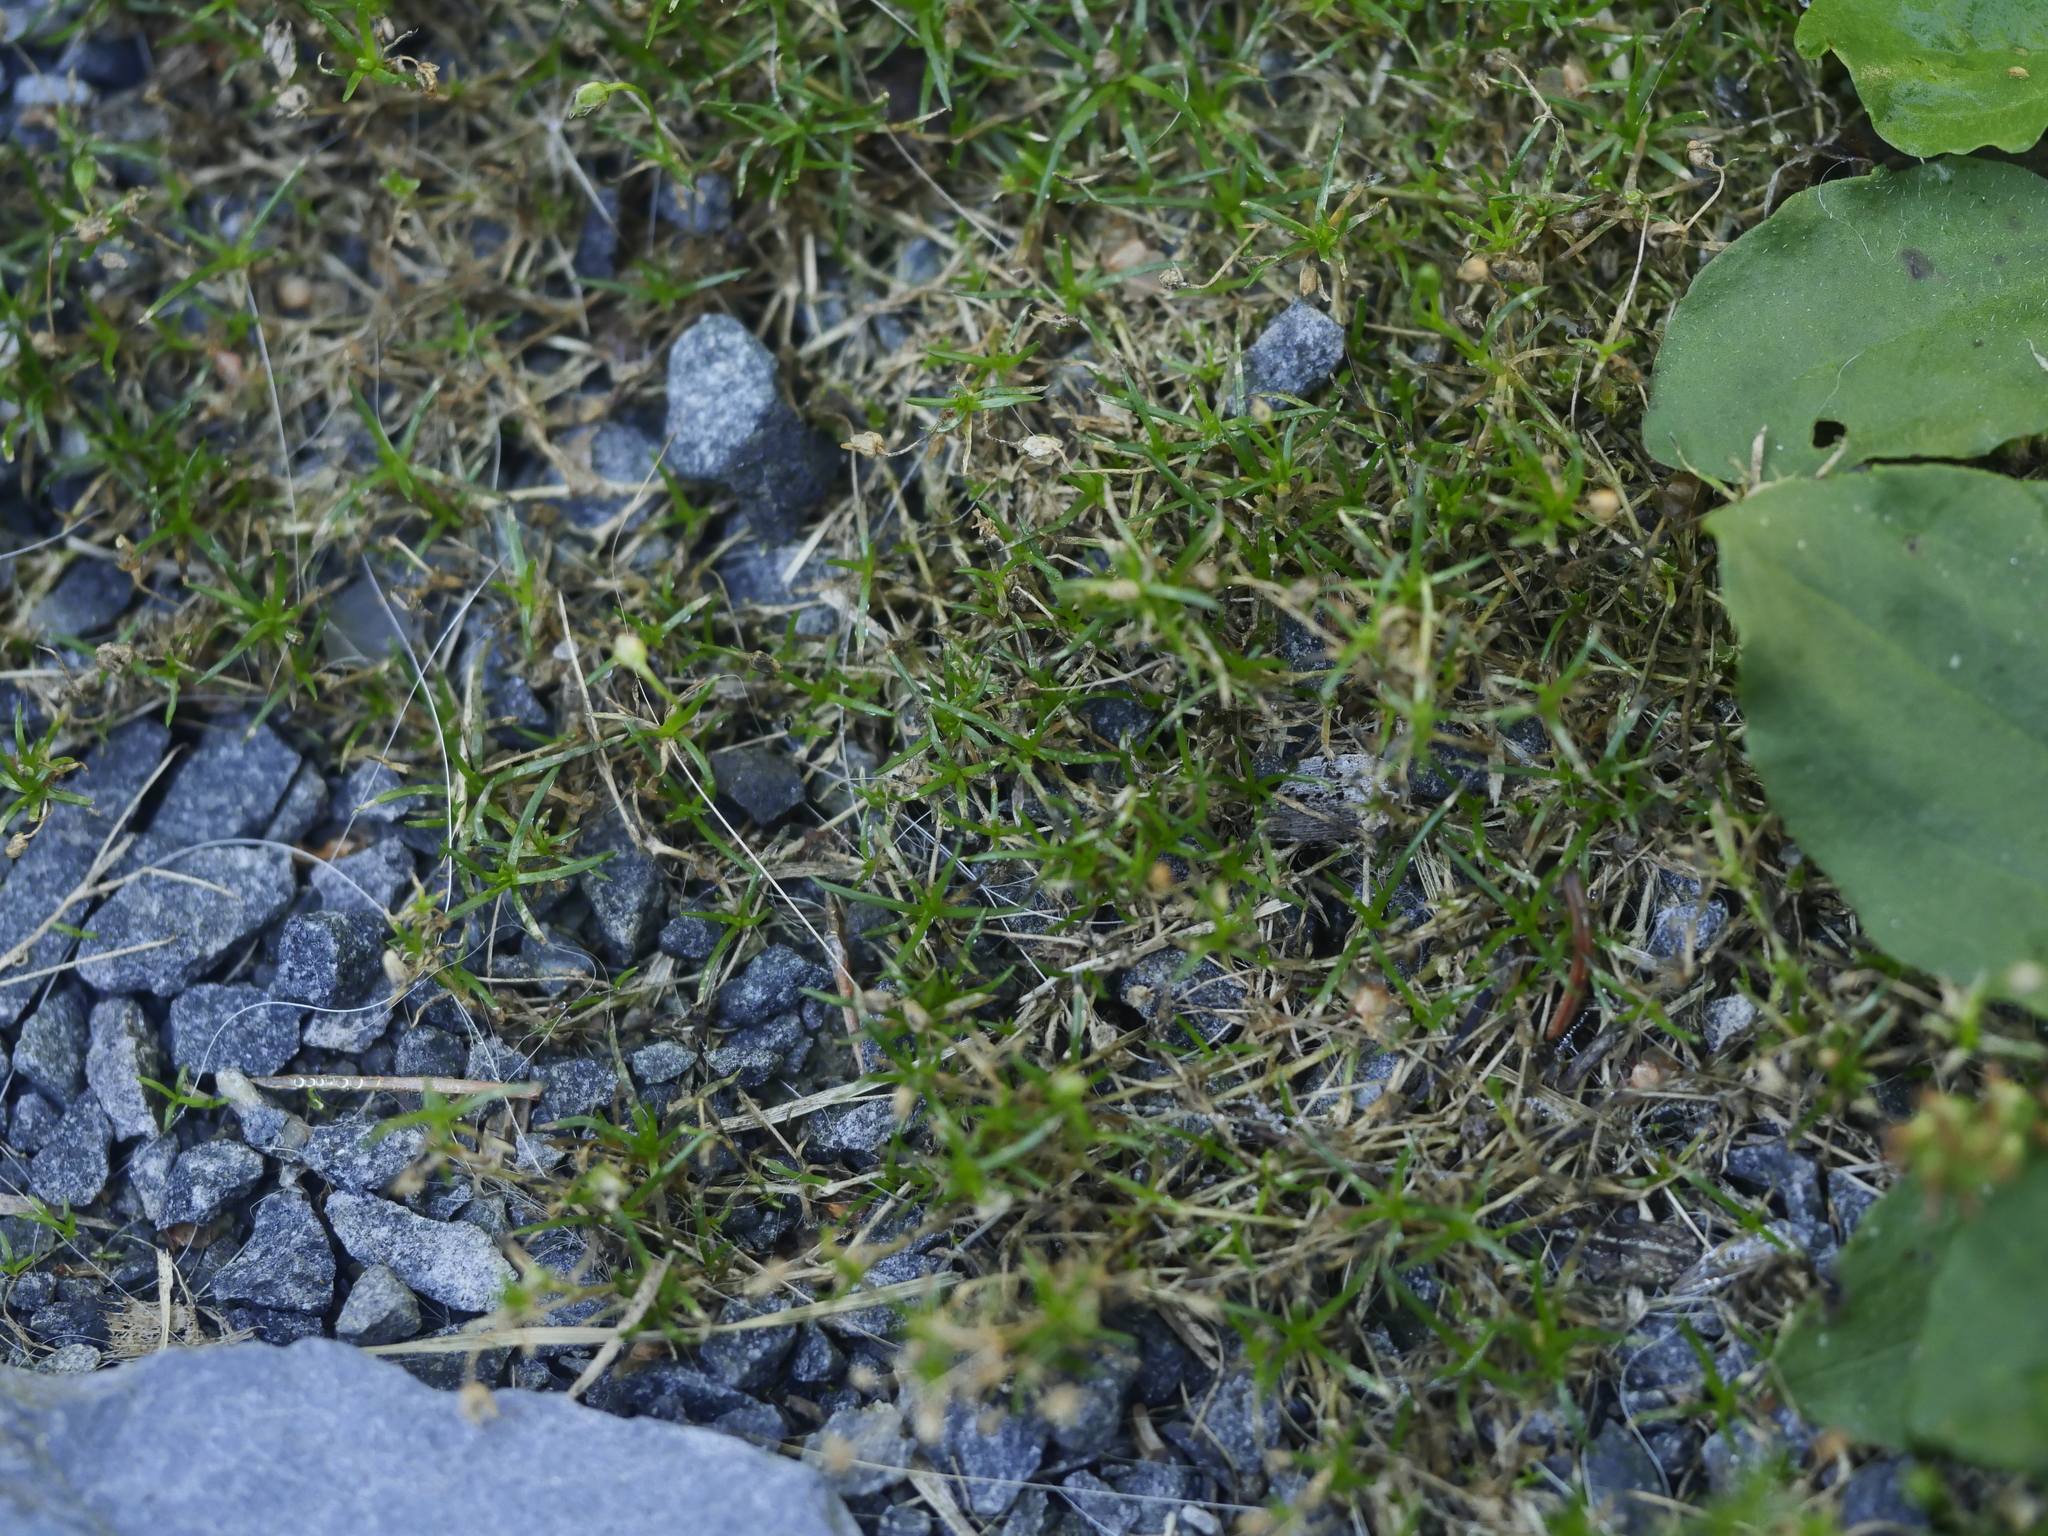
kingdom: Plantae
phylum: Tracheophyta
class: Magnoliopsida
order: Caryophyllales
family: Caryophyllaceae
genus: Sagina
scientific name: Sagina procumbens
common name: Procumbent pearlwort
